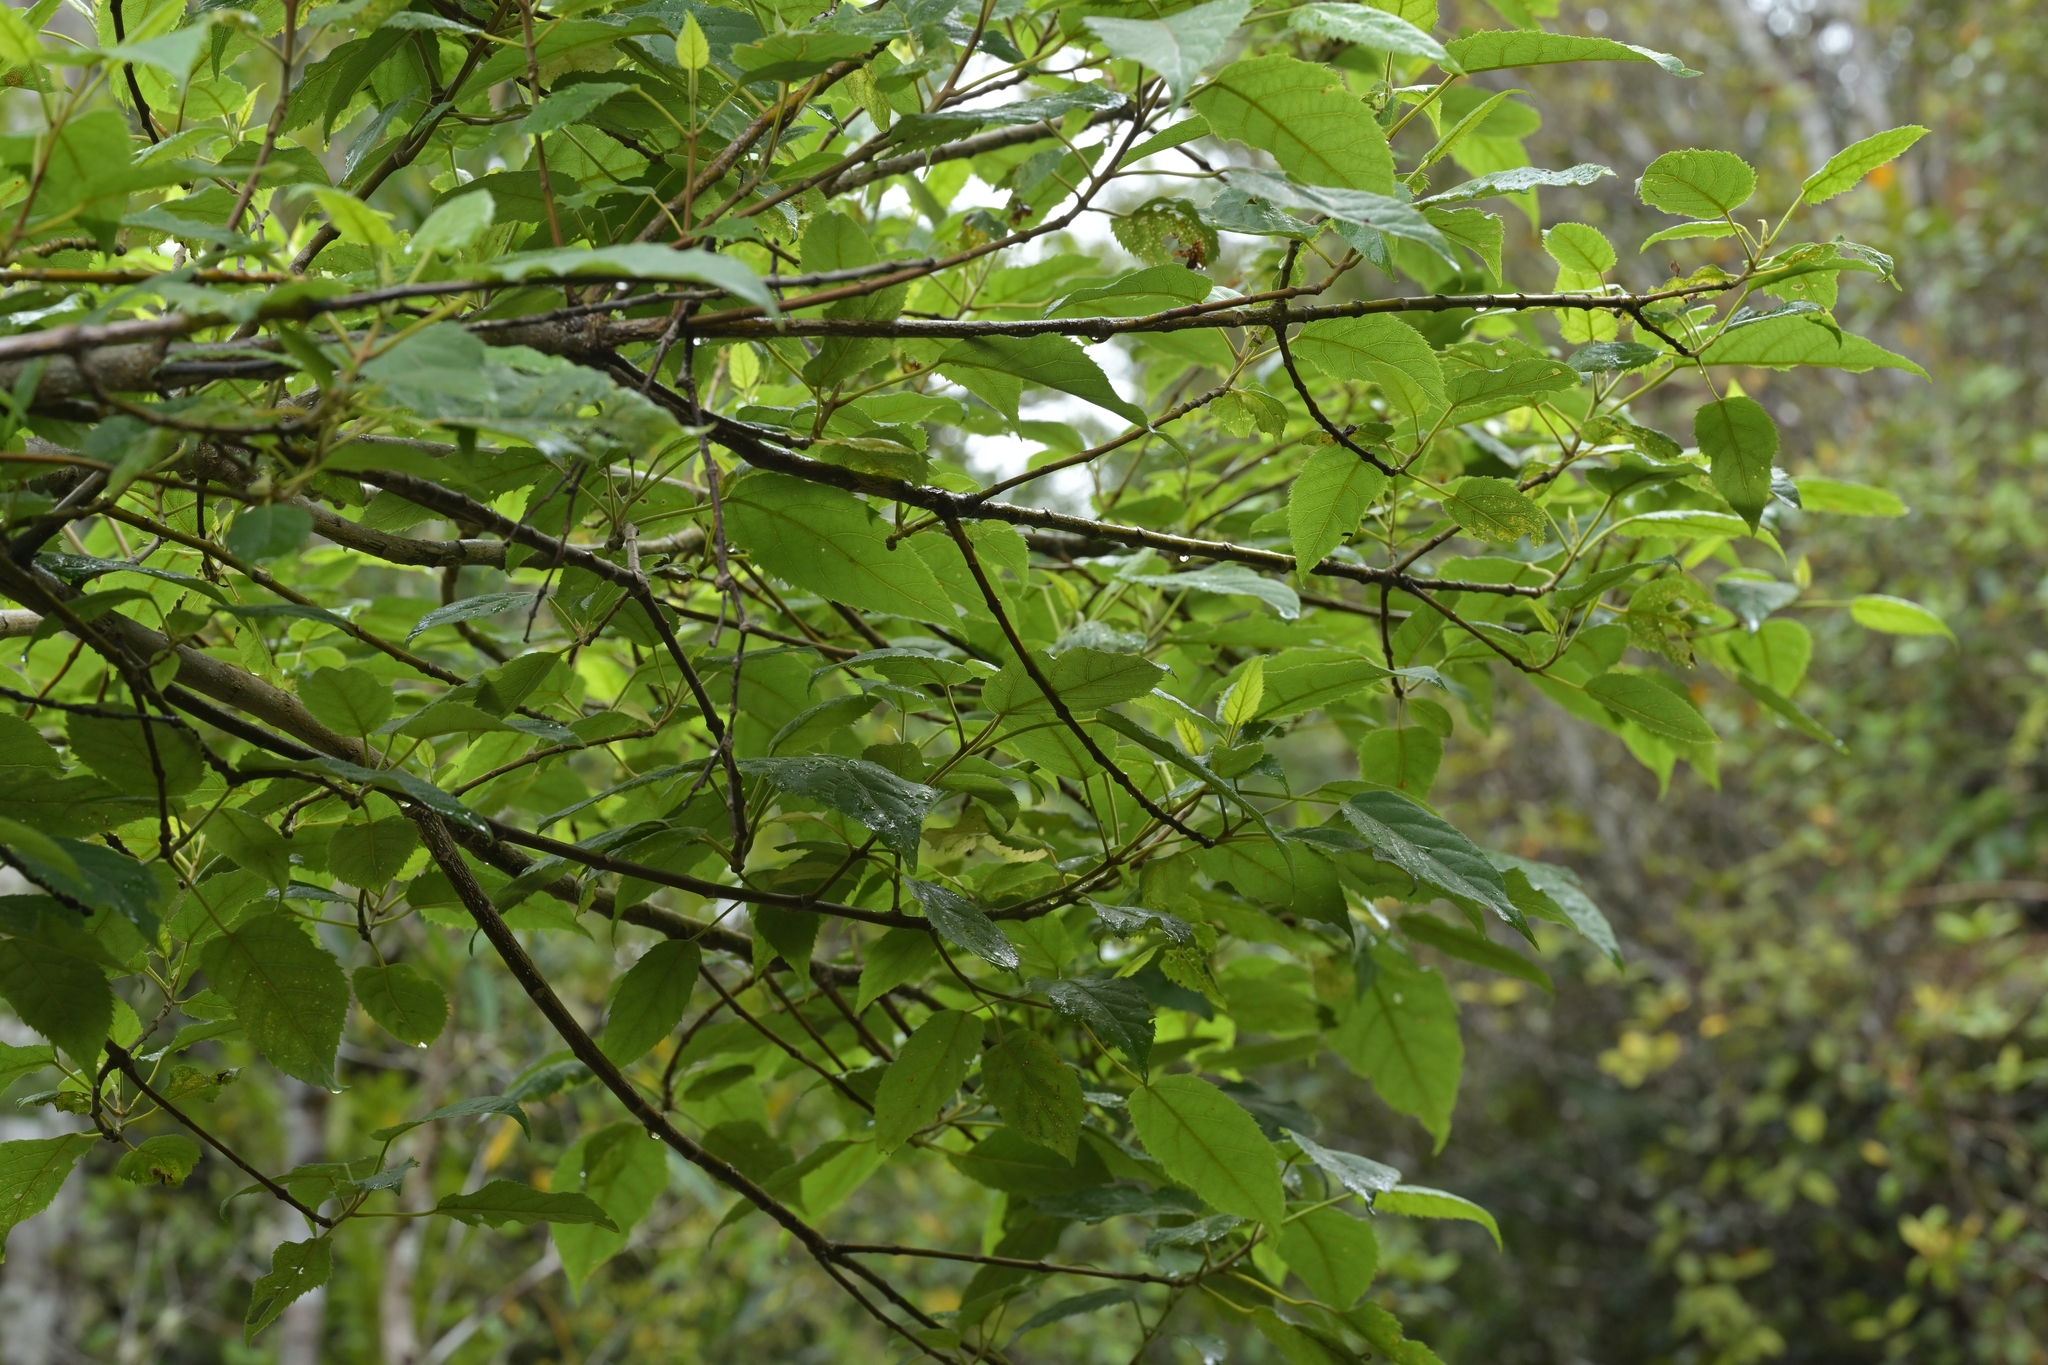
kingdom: Plantae
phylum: Tracheophyta
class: Magnoliopsida
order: Oxalidales
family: Elaeocarpaceae
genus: Aristotelia
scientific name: Aristotelia serrata
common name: New zealand wineberry
